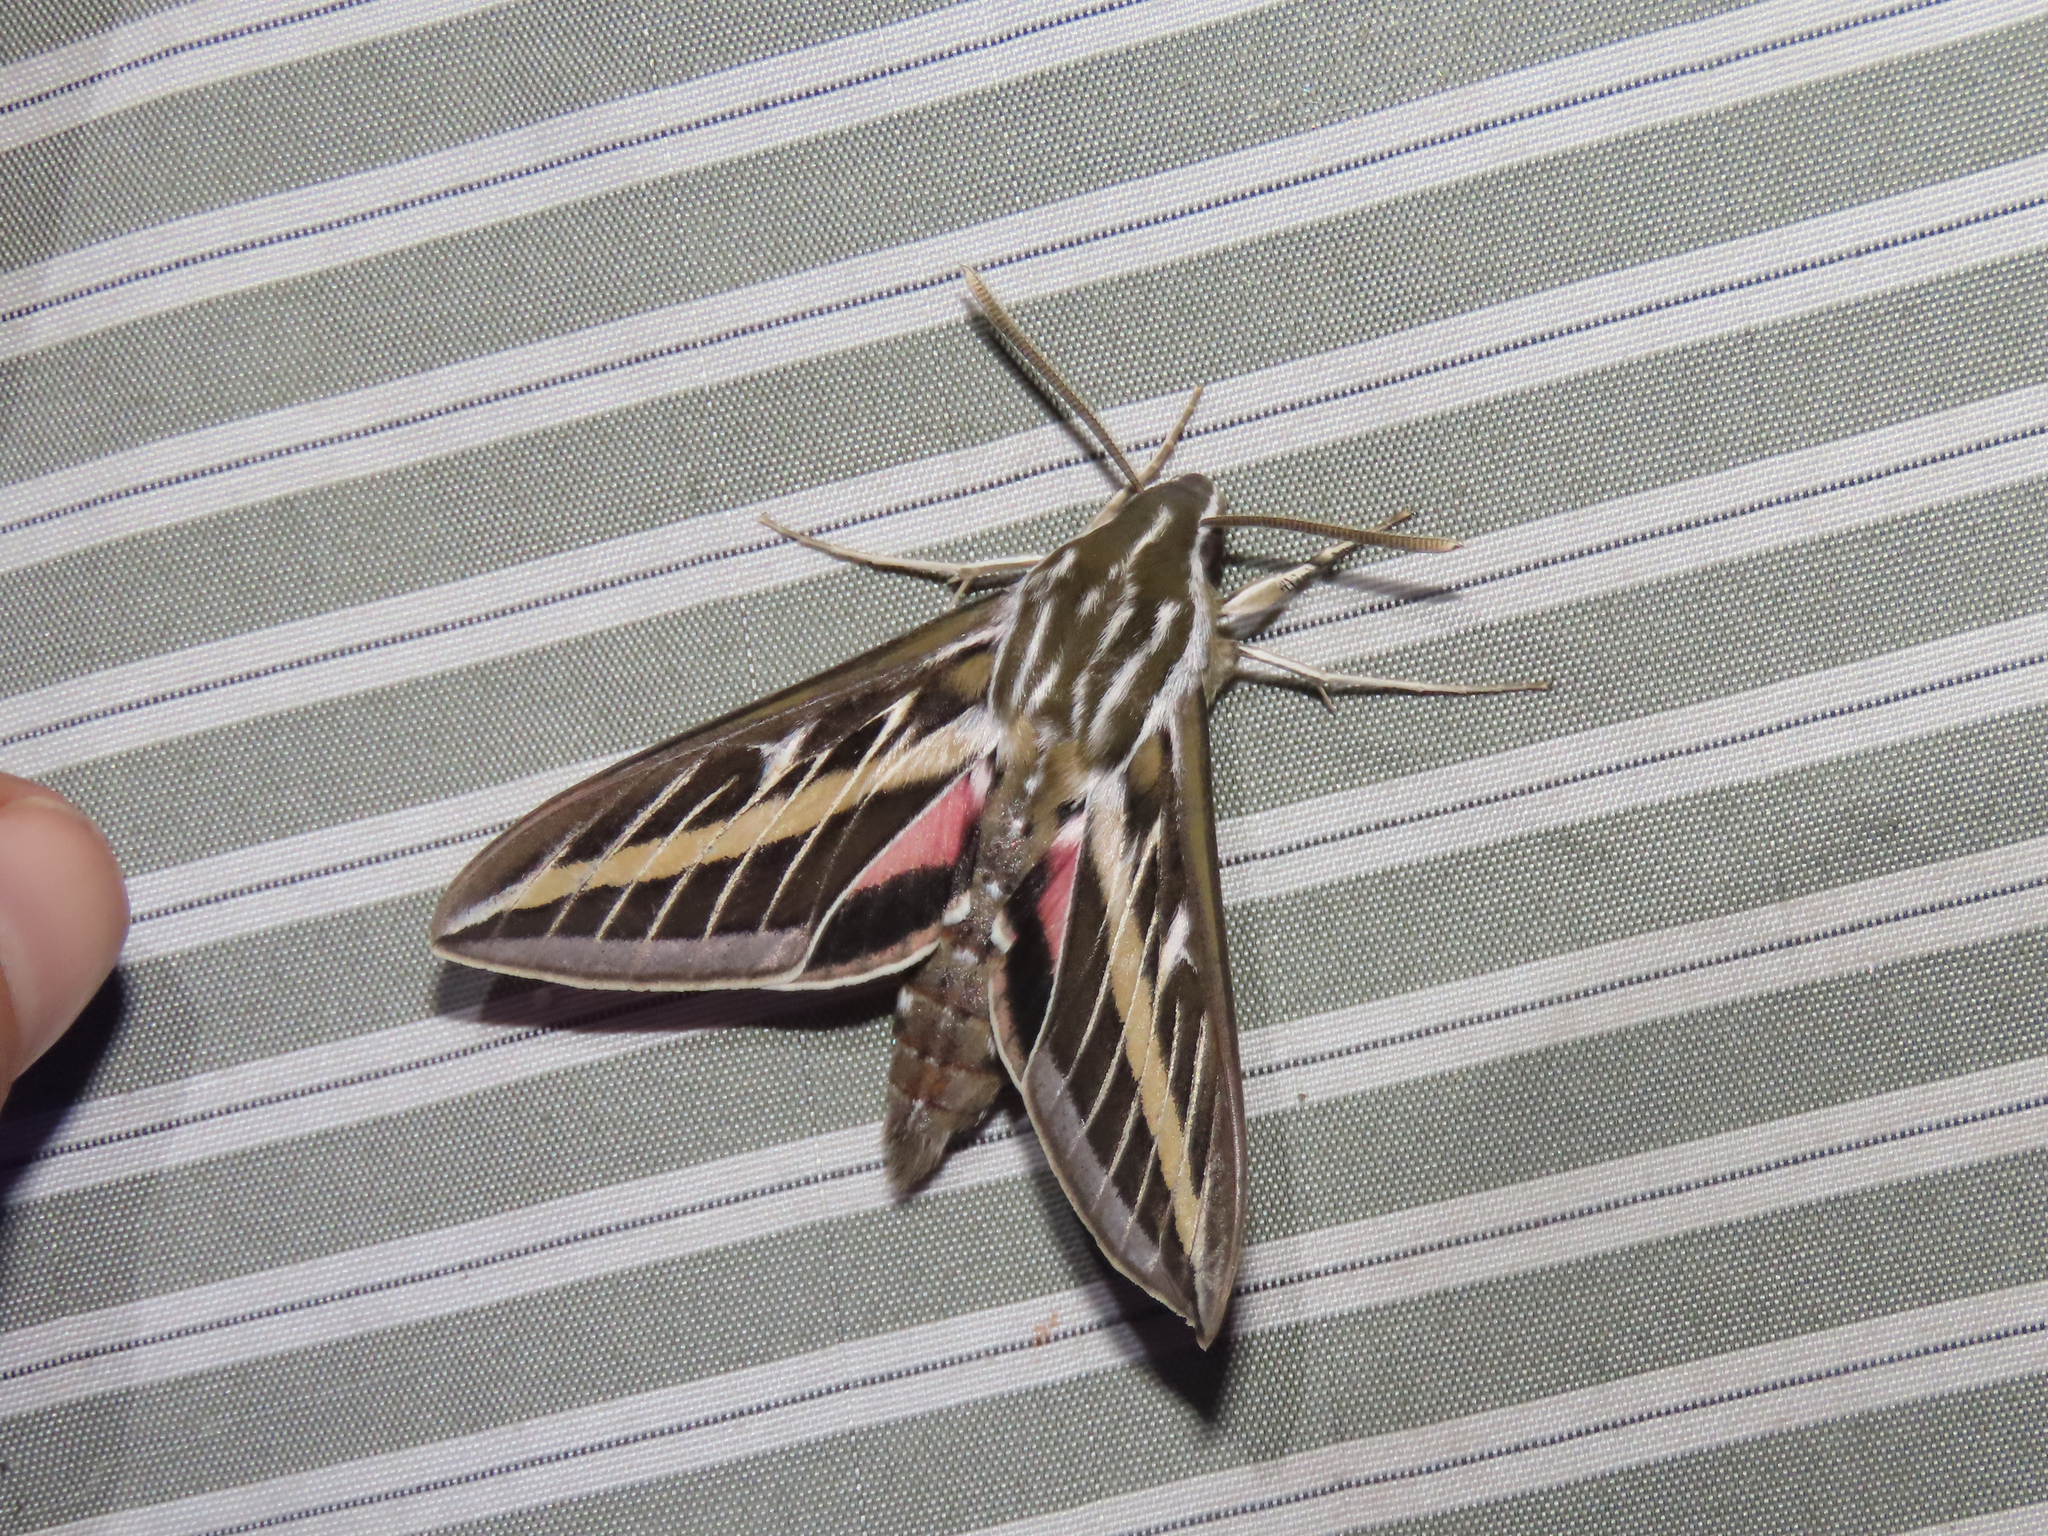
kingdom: Animalia
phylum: Arthropoda
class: Insecta
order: Lepidoptera
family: Sphingidae
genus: Hyles
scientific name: Hyles lineata
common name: White-lined sphinx
